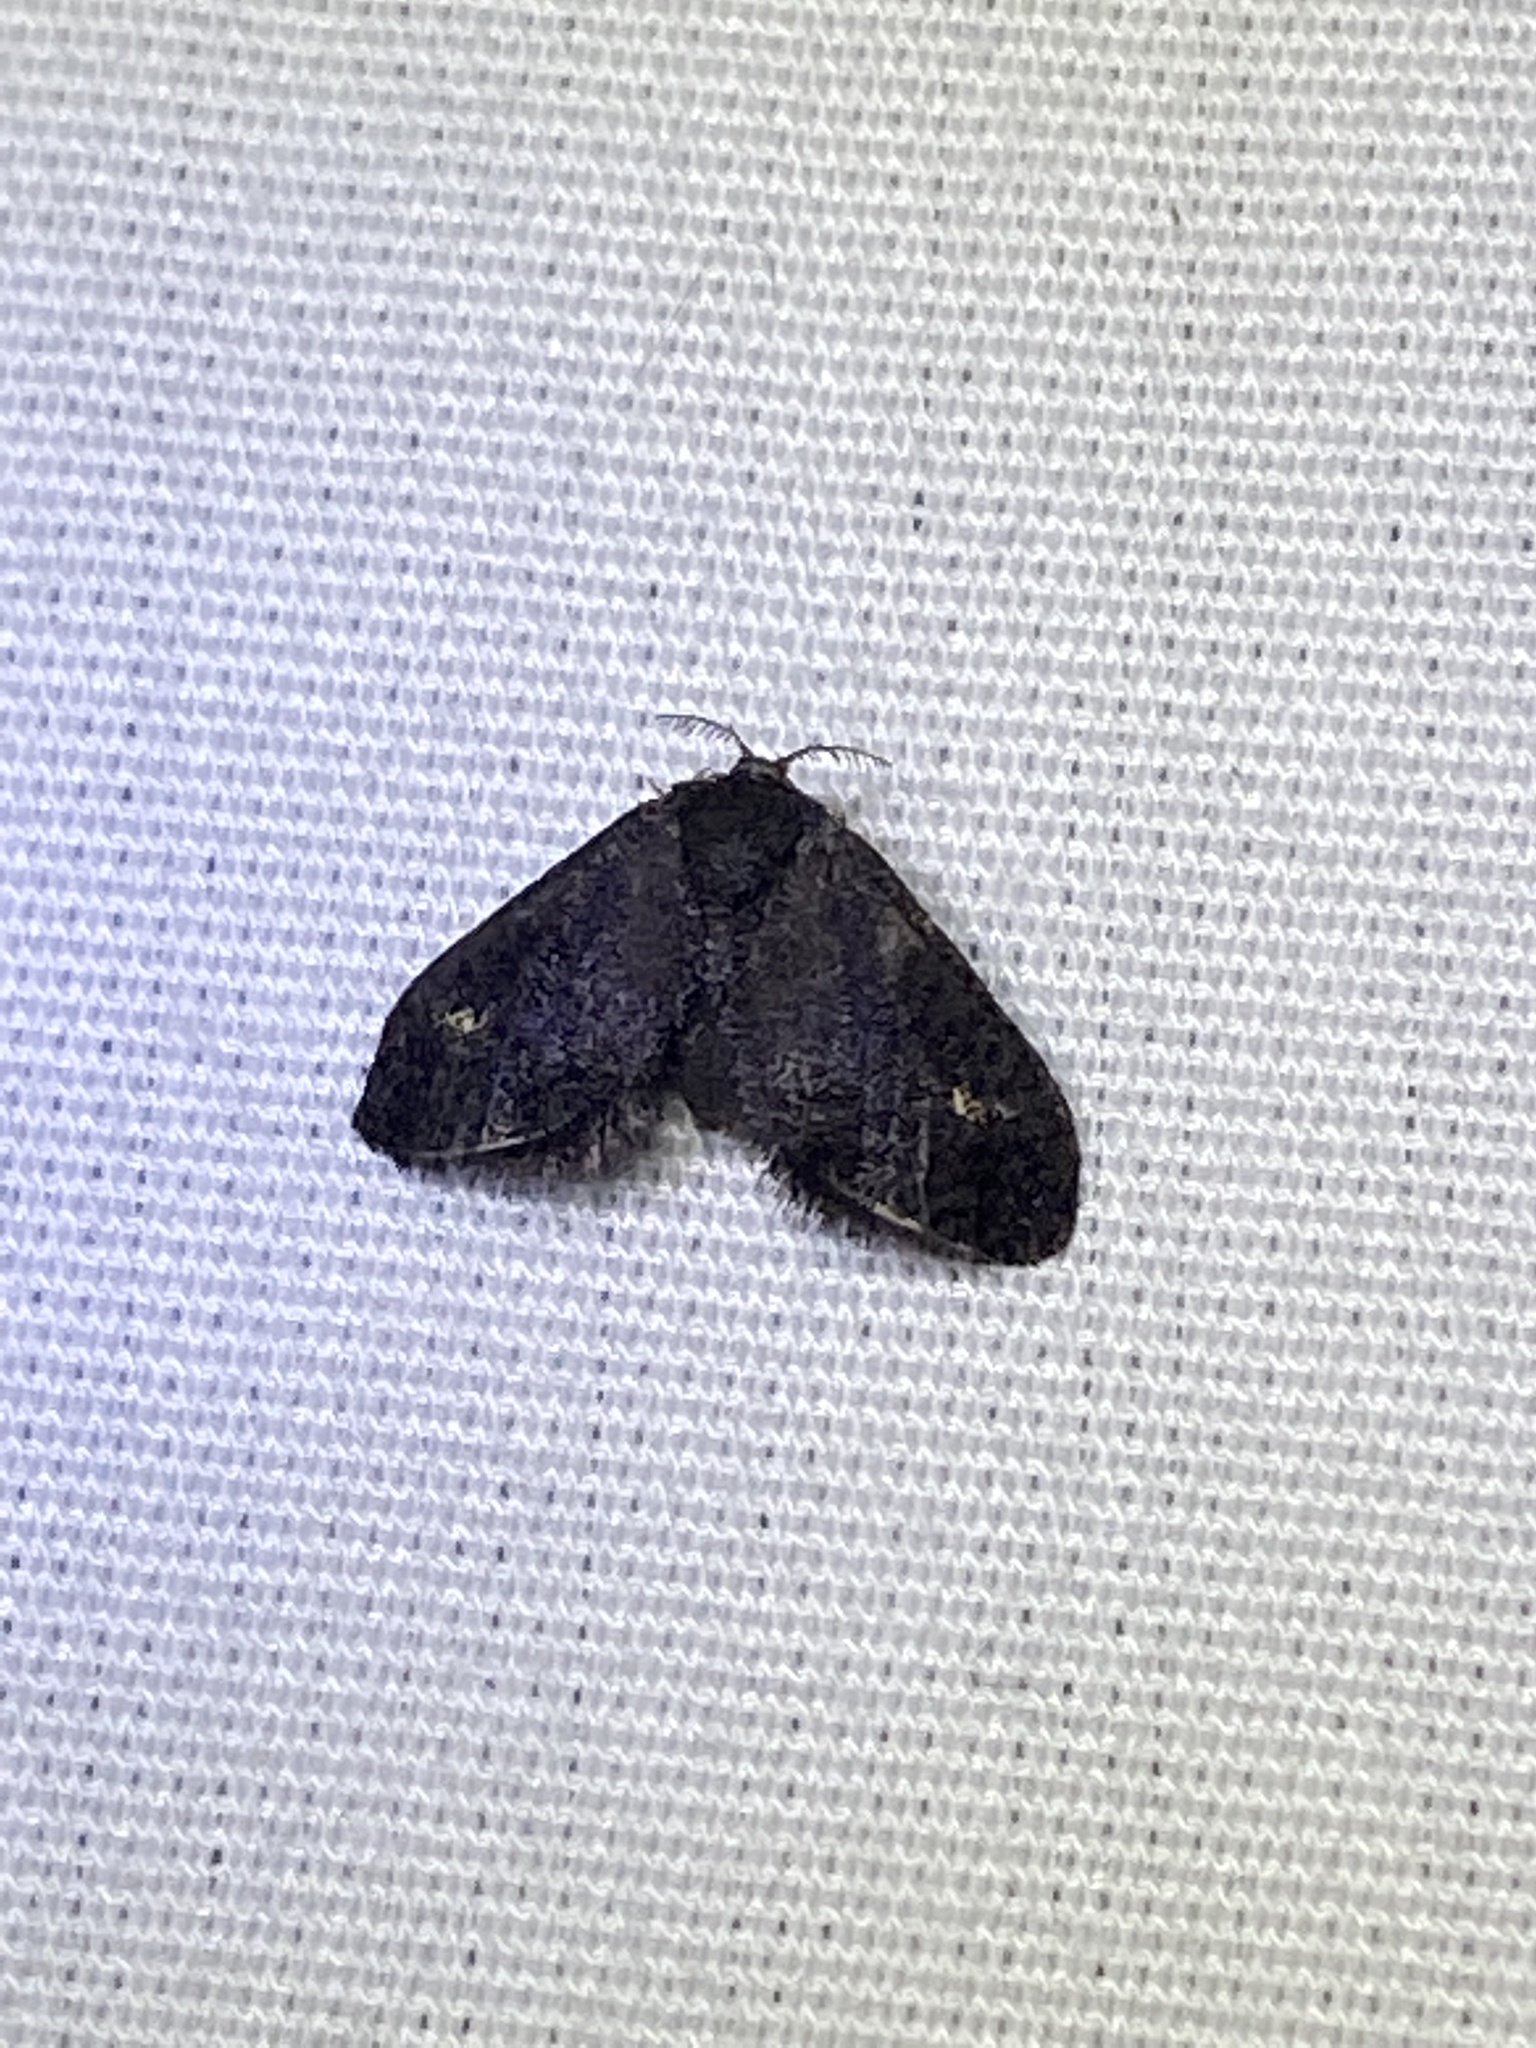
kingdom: Animalia
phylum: Arthropoda
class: Insecta
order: Lepidoptera
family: Epipyropidae
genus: Fulgoraecia
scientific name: Fulgoraecia exigua
